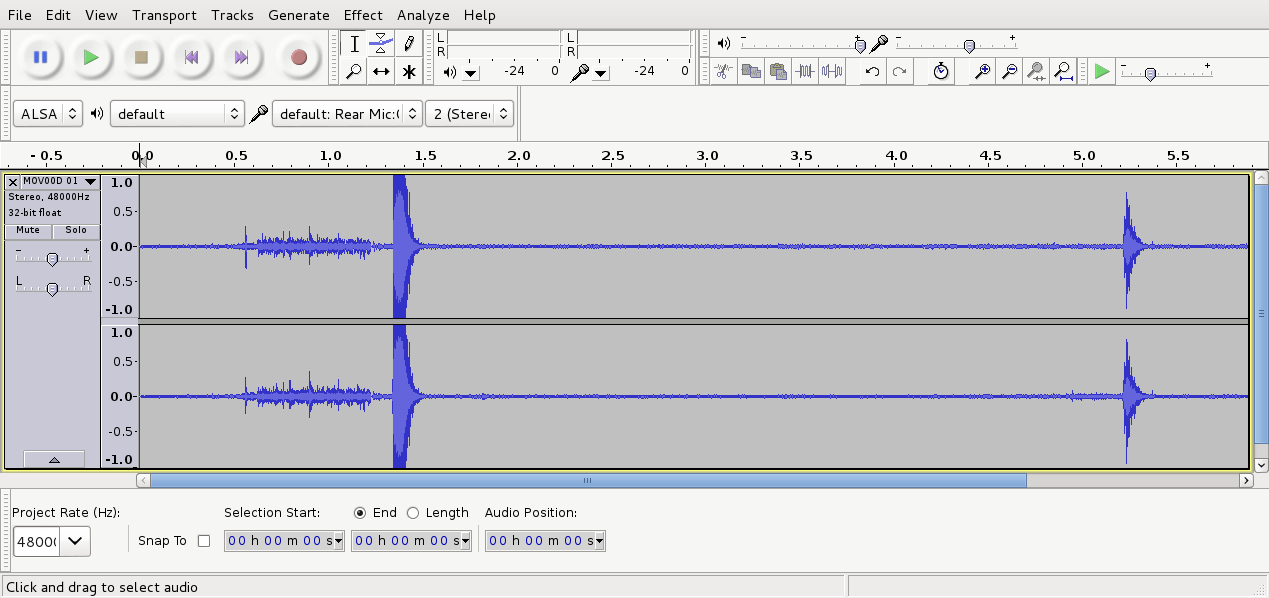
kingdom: Animalia
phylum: Chordata
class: Aves
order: Passeriformes
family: Notiomystidae
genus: Notiomystis
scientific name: Notiomystis cincta
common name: Stitchbird
